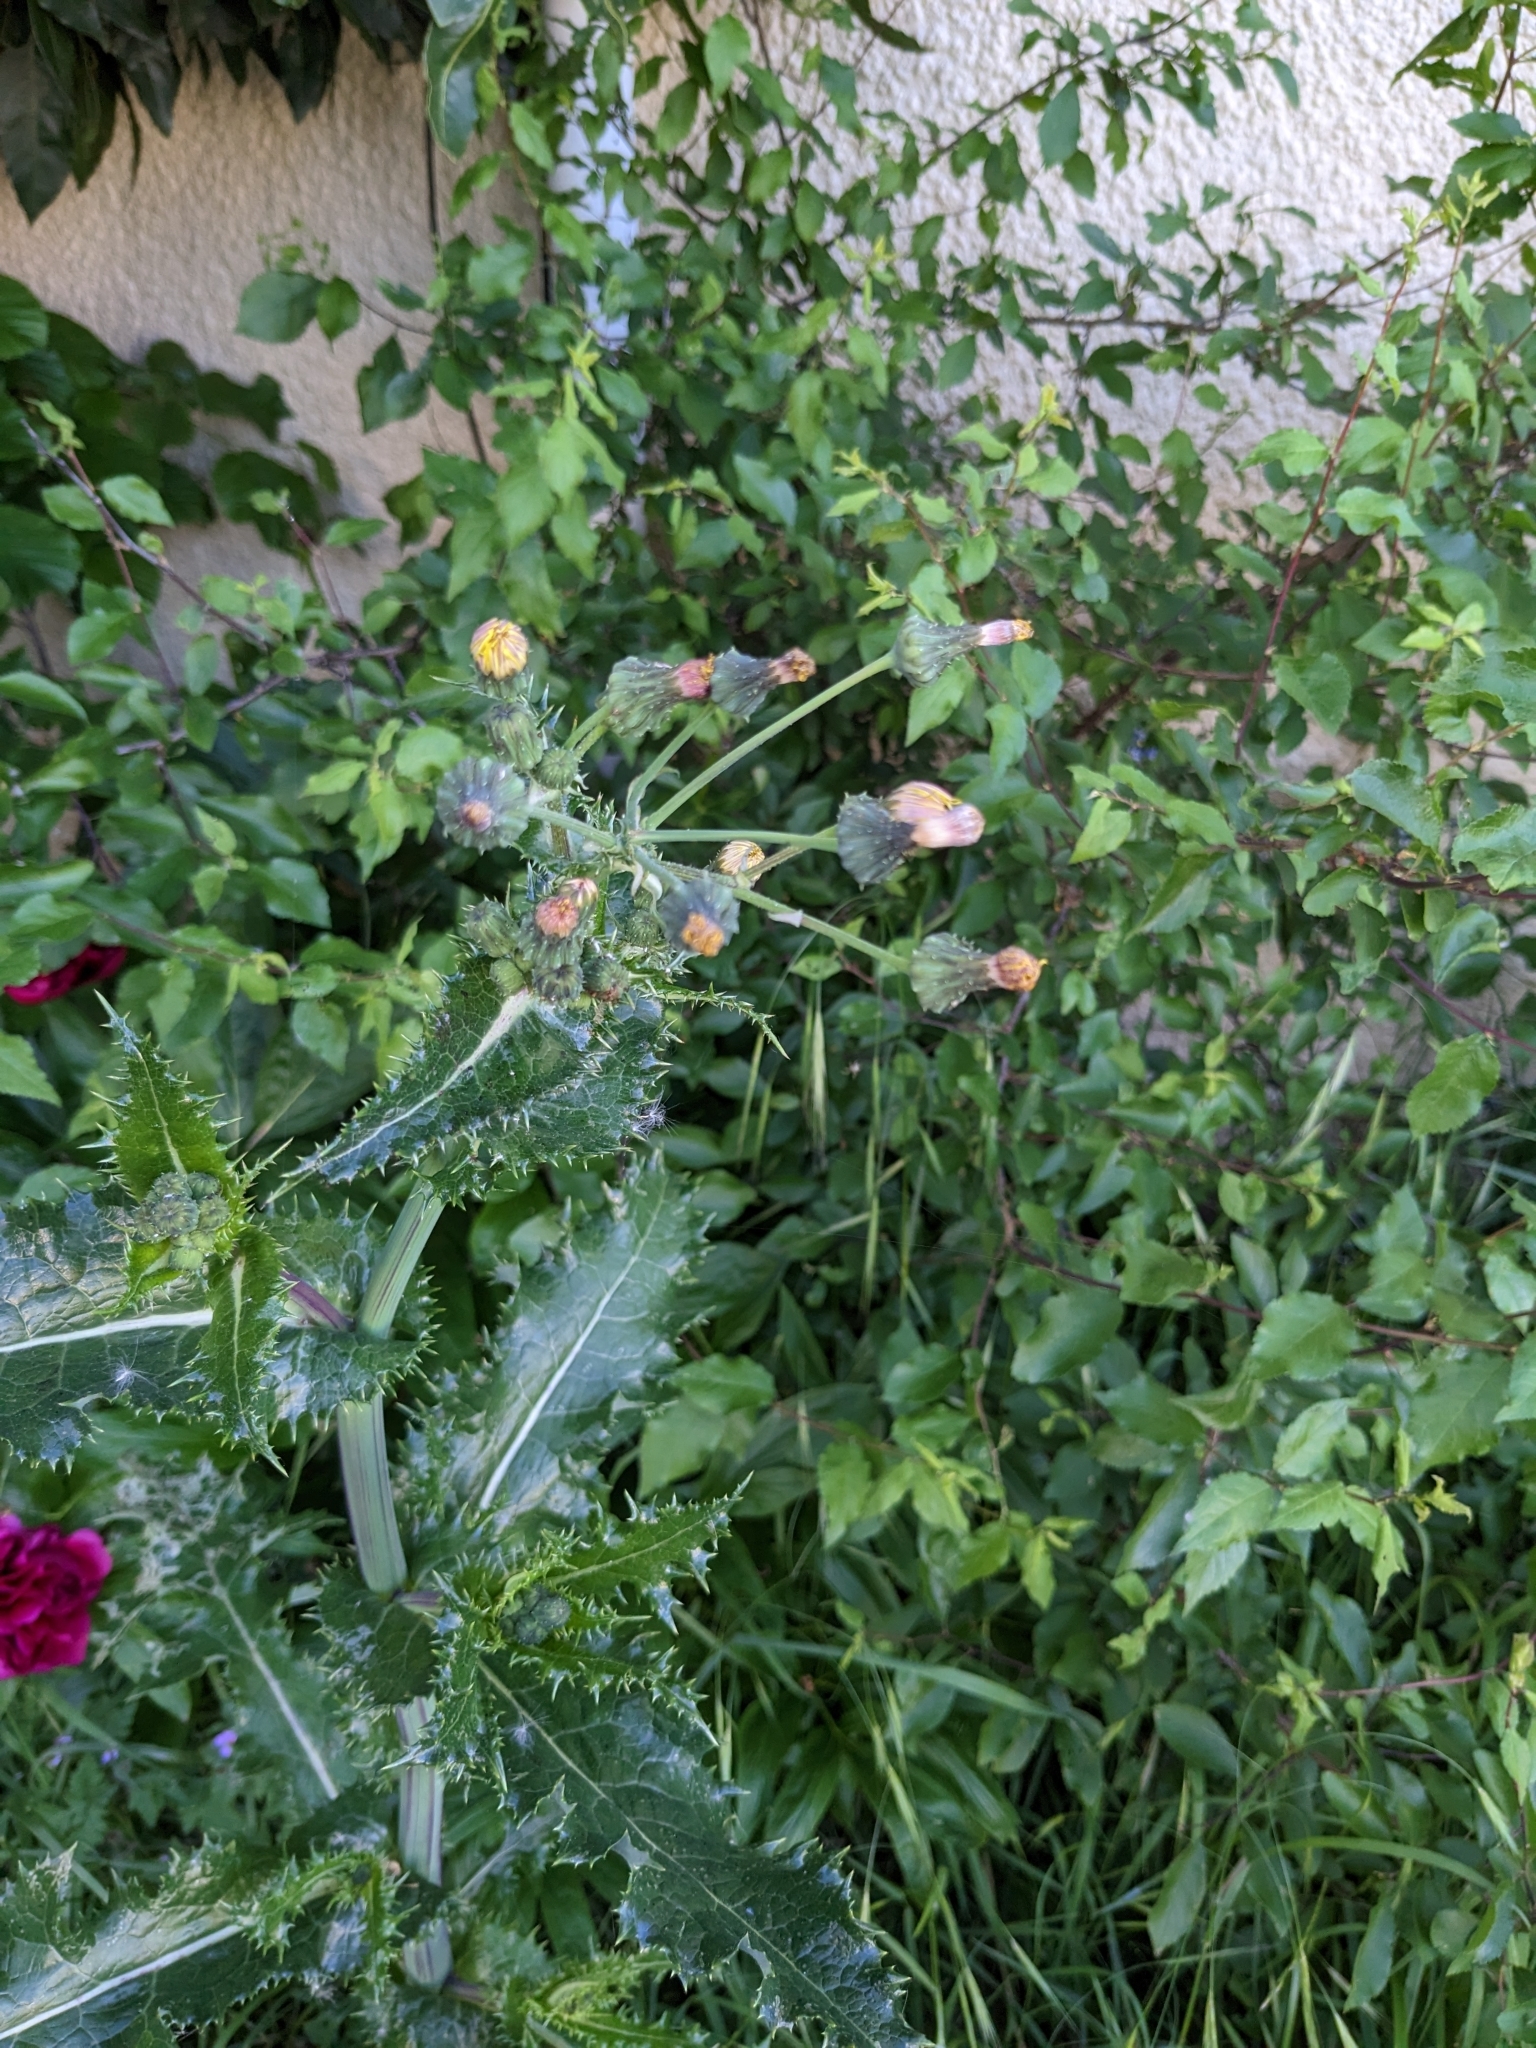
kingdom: Plantae
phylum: Tracheophyta
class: Magnoliopsida
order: Asterales
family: Asteraceae
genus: Sonchus
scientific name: Sonchus asper
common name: Prickly sow-thistle
